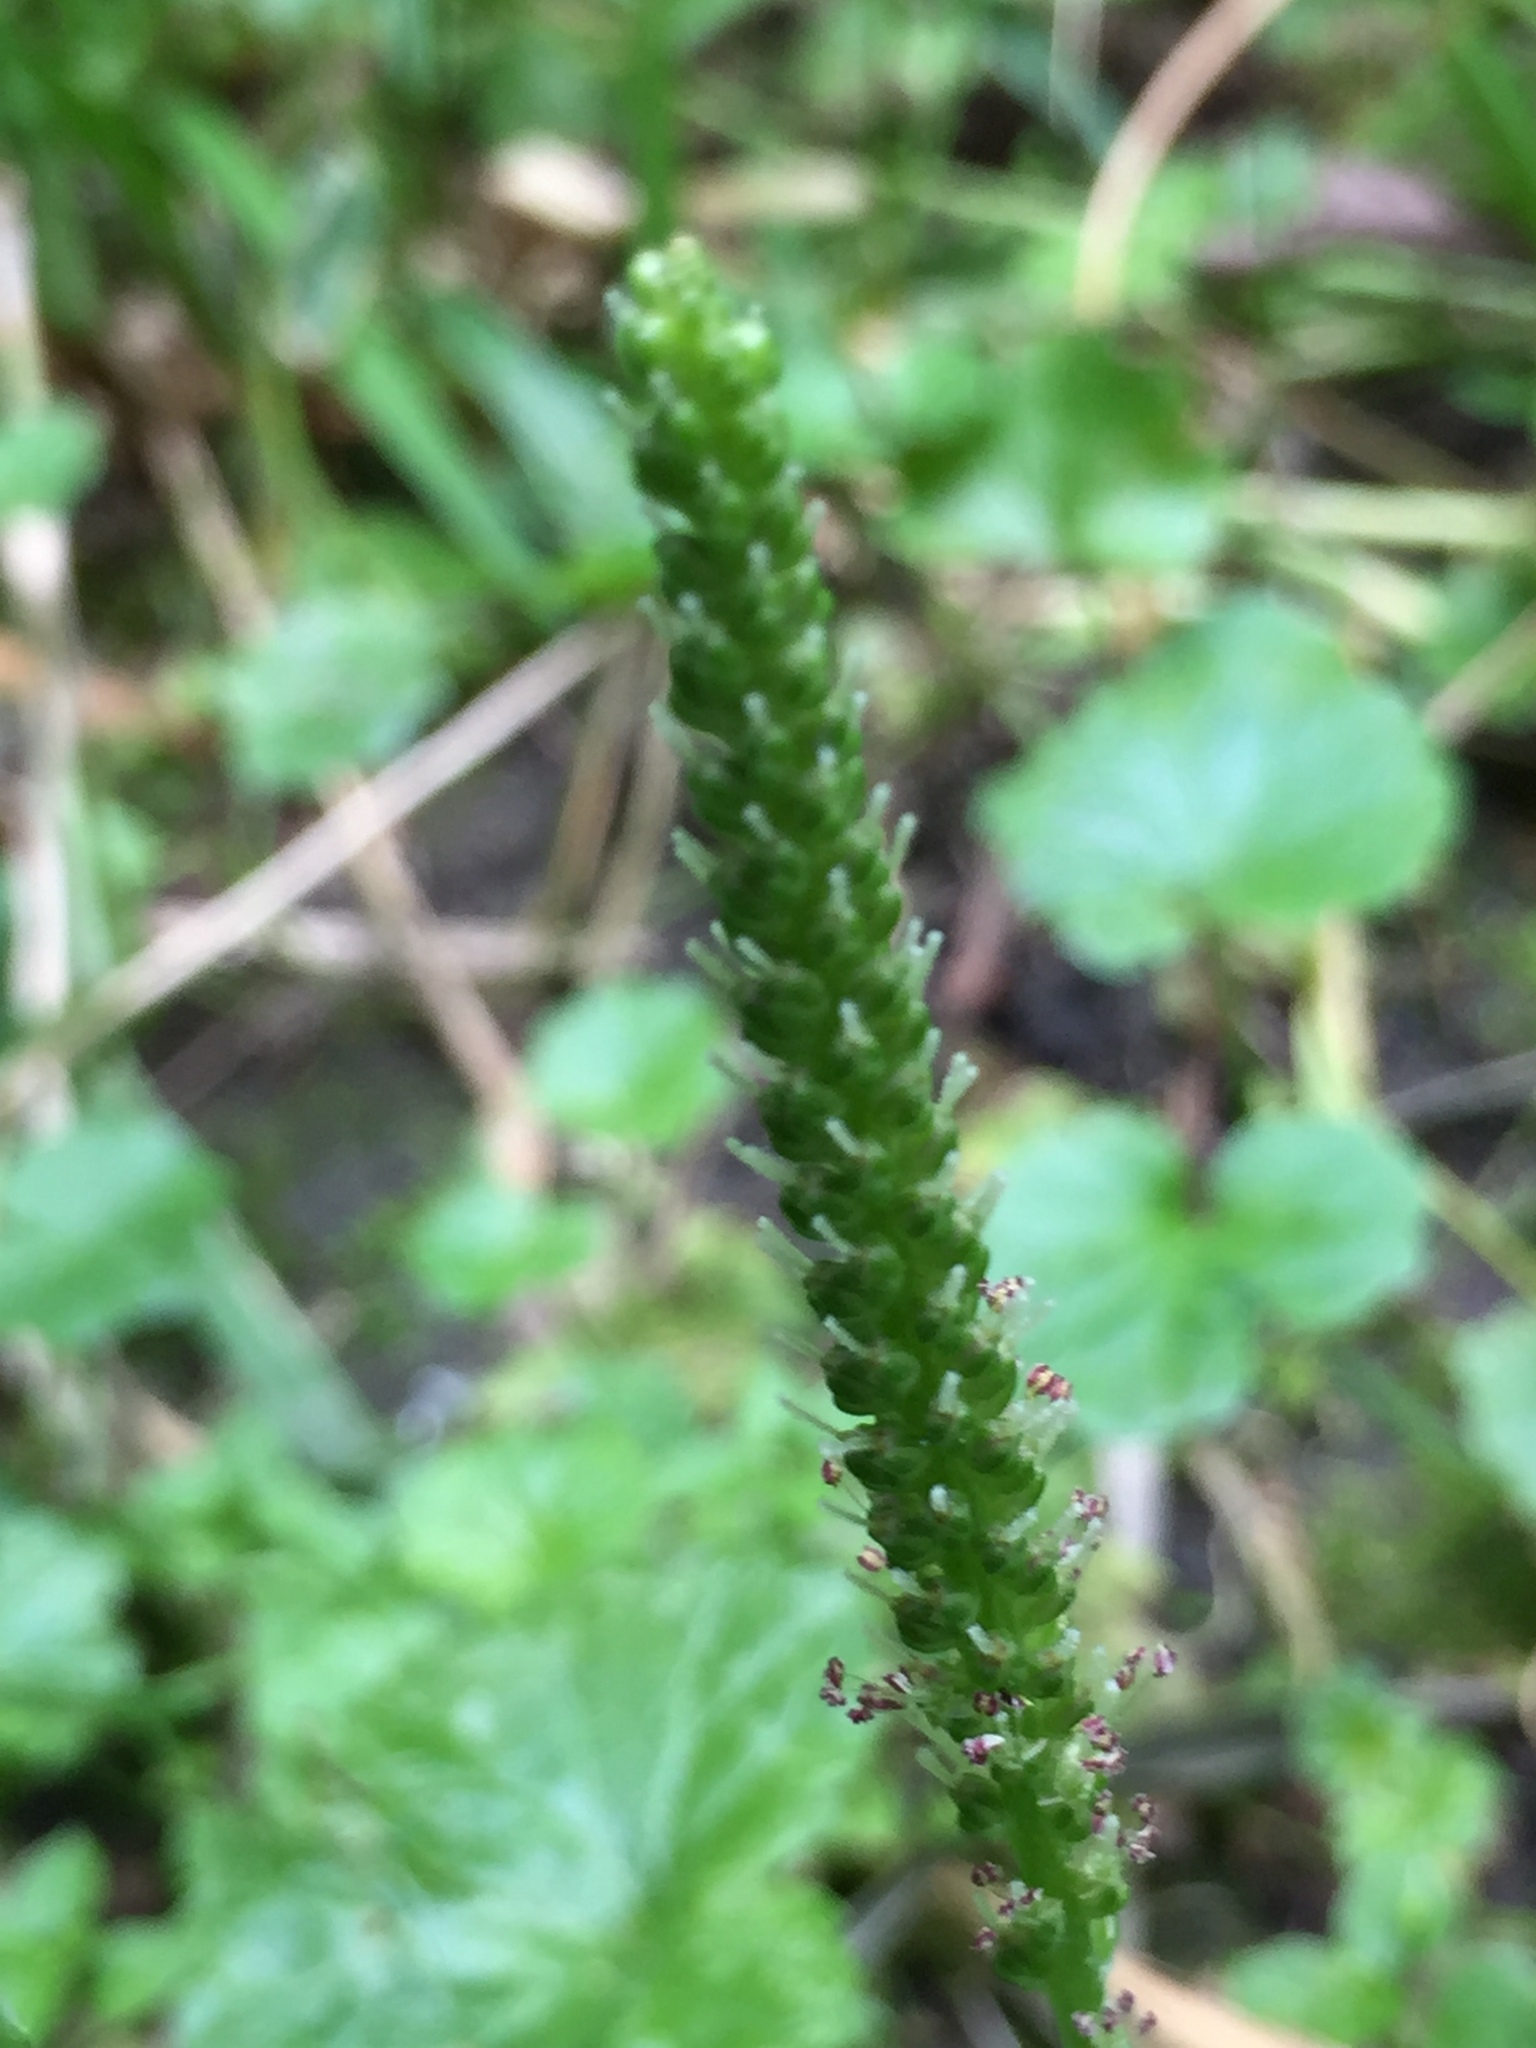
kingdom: Plantae
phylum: Tracheophyta
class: Magnoliopsida
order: Lamiales
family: Plantaginaceae
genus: Plantago
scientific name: Plantago major
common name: Common plantain
